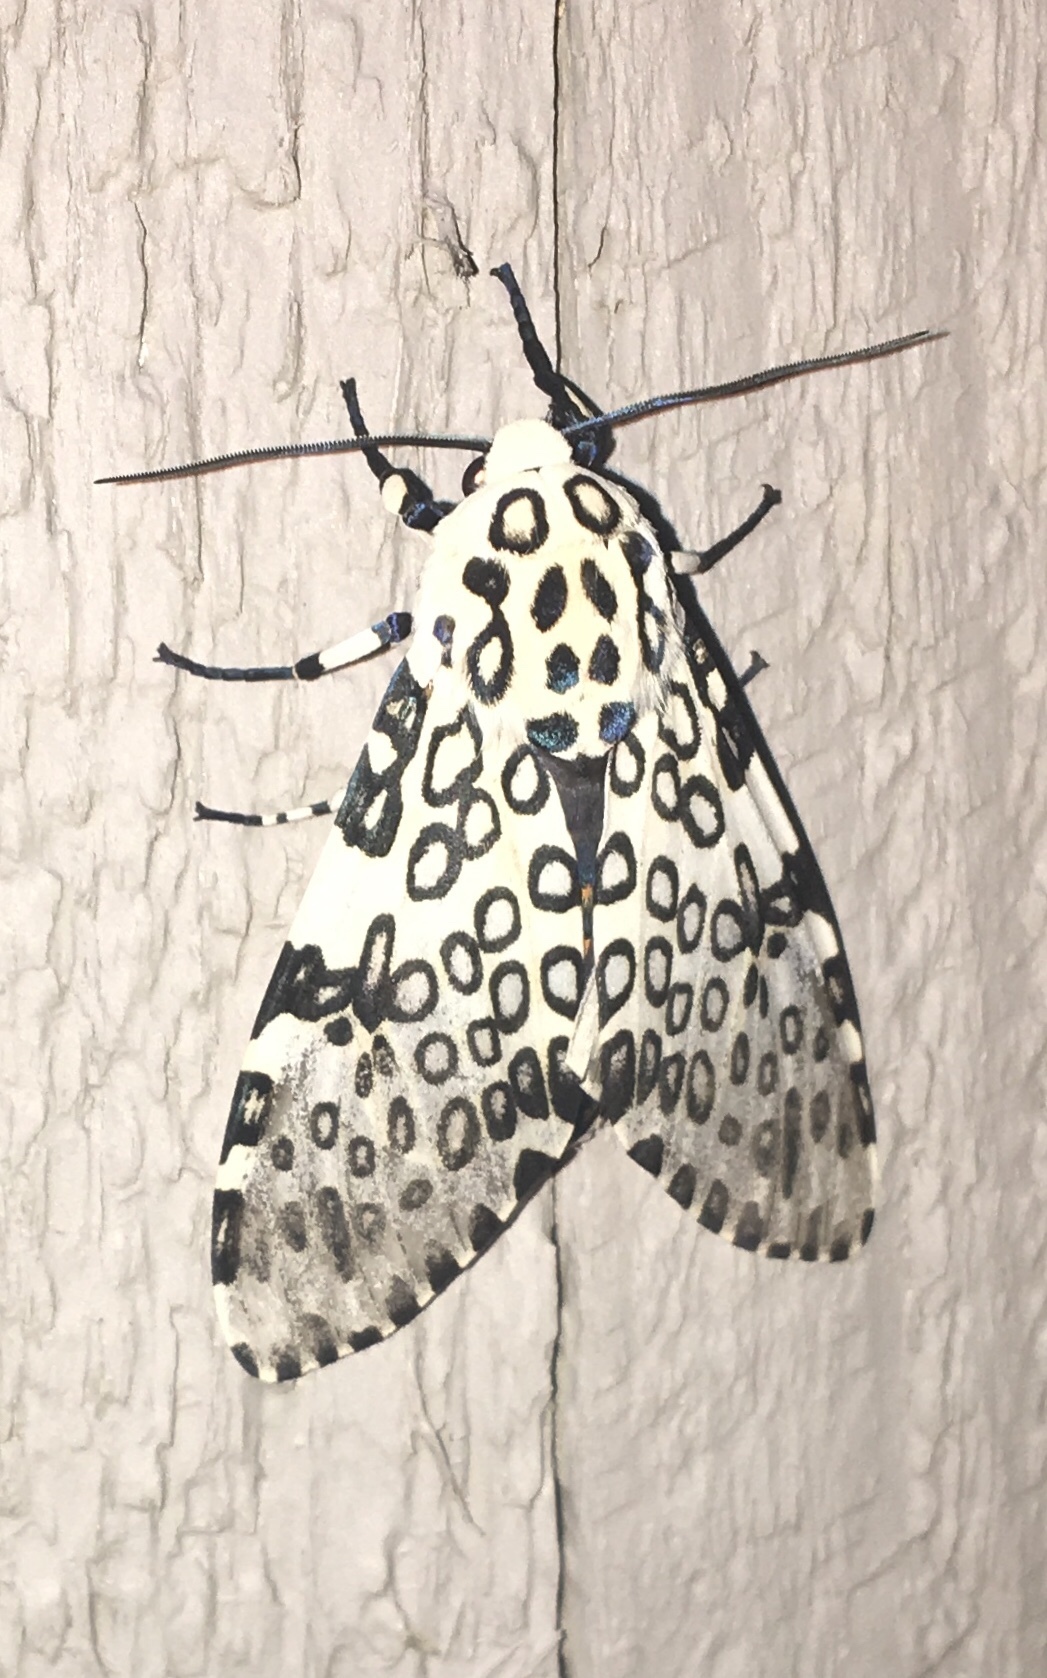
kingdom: Animalia
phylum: Arthropoda
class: Insecta
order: Lepidoptera
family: Erebidae
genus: Hypercompe
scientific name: Hypercompe scribonia
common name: Giant leopard moth
